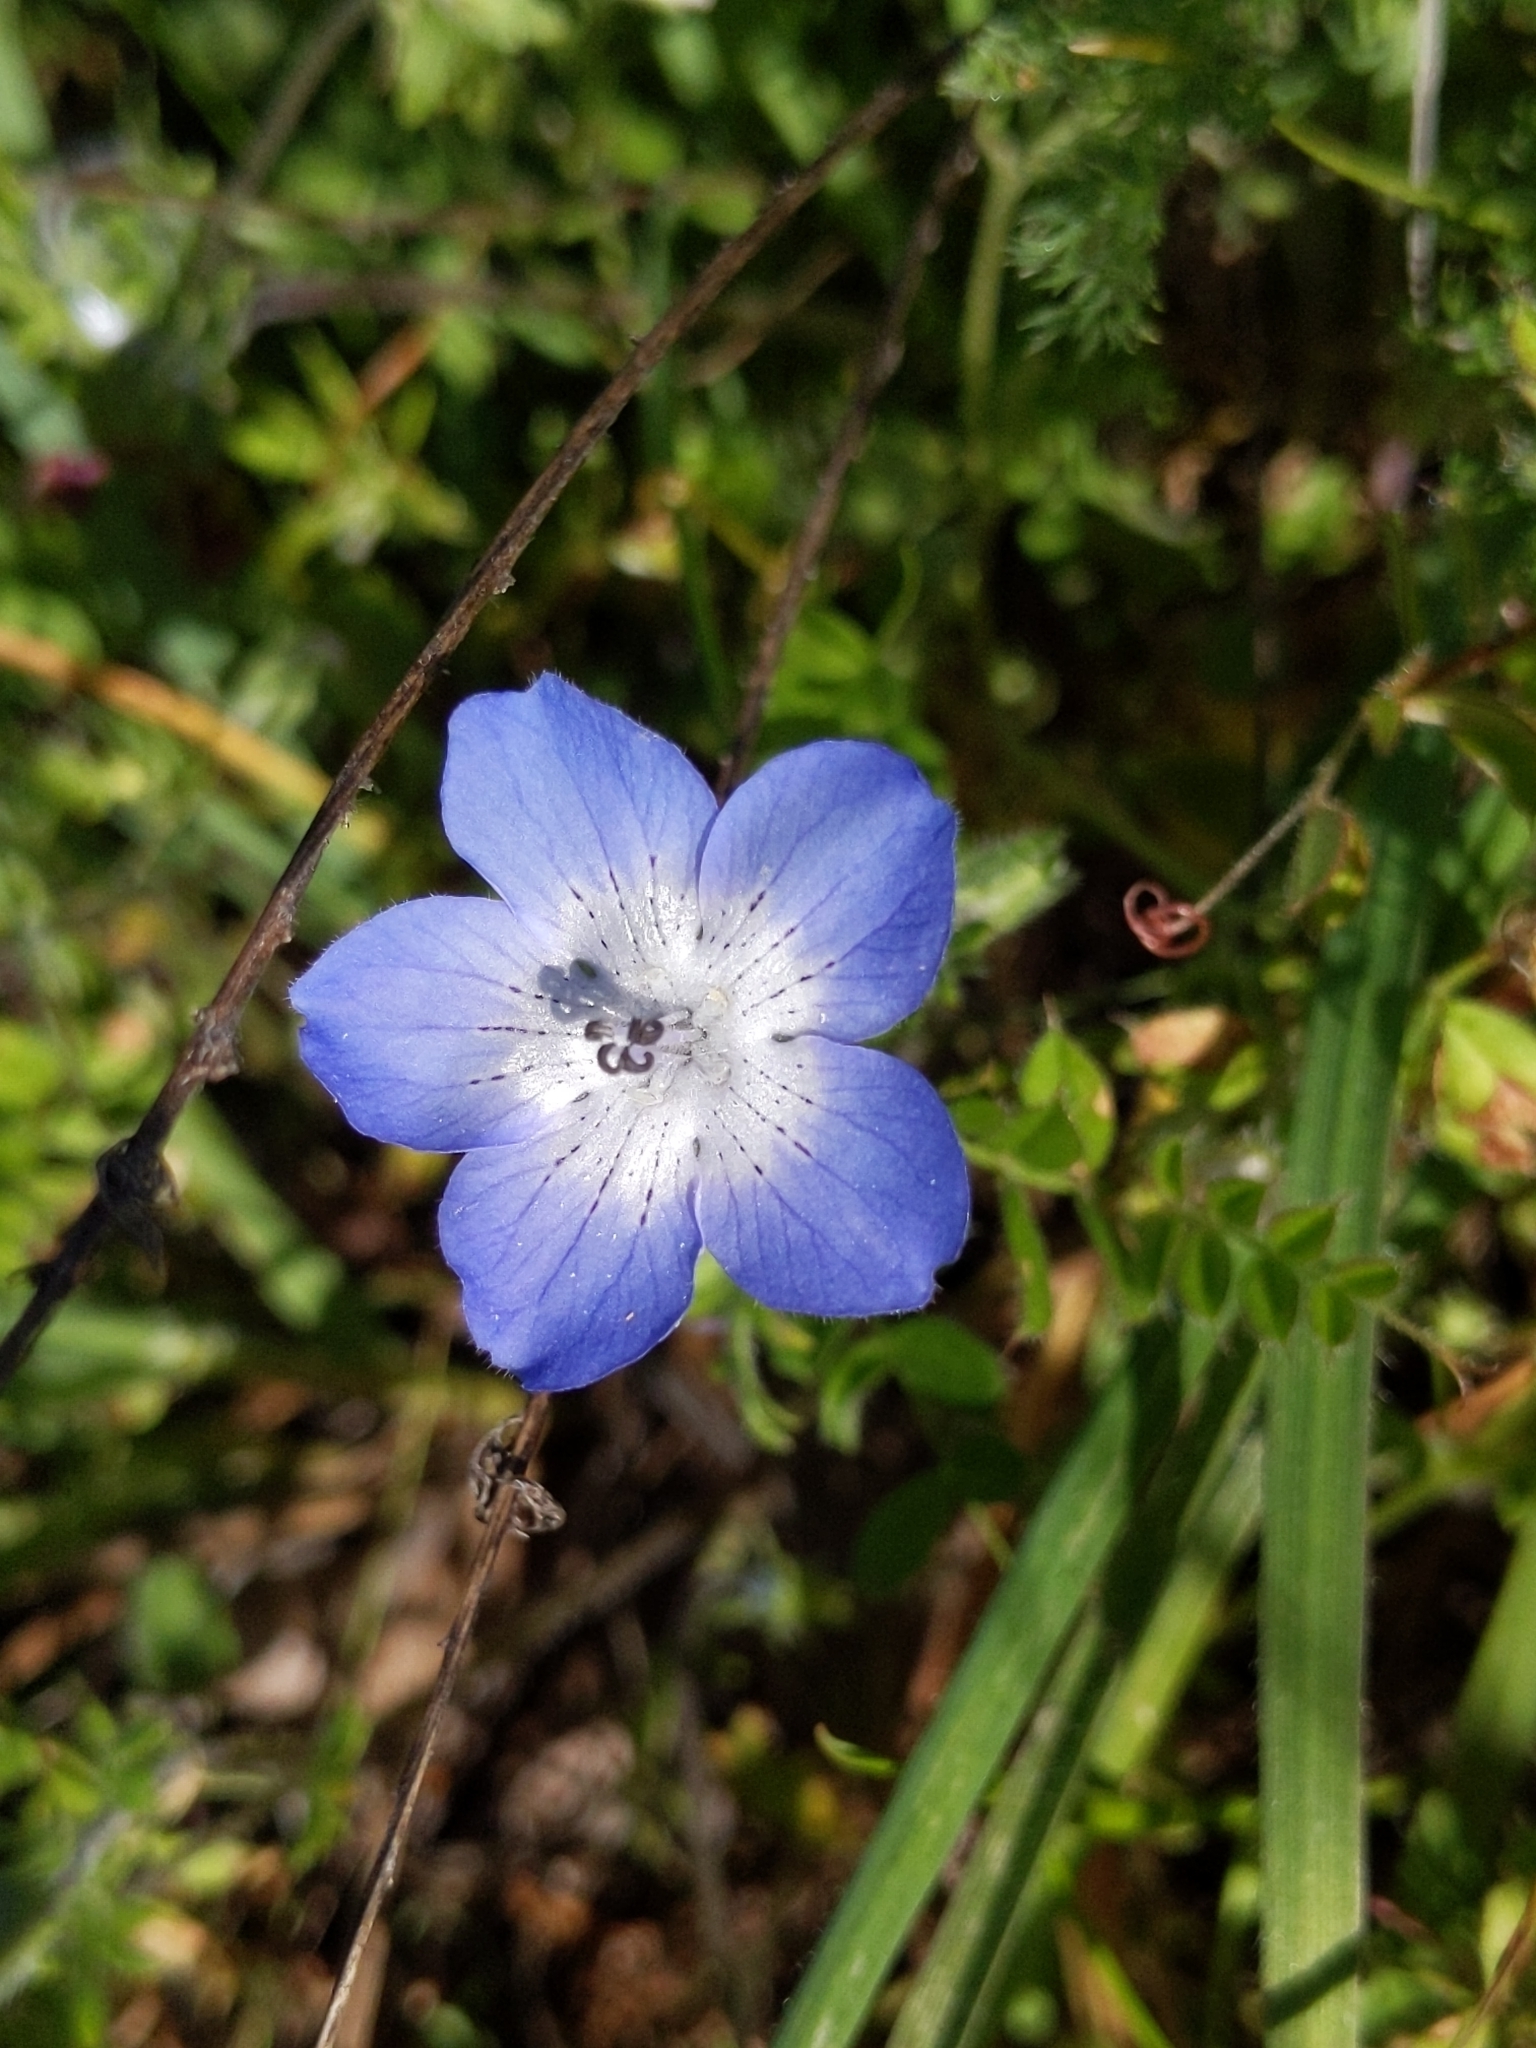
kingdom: Plantae
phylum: Tracheophyta
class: Magnoliopsida
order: Boraginales
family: Hydrophyllaceae
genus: Nemophila
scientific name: Nemophila menziesii
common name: Baby's-blue-eyes
